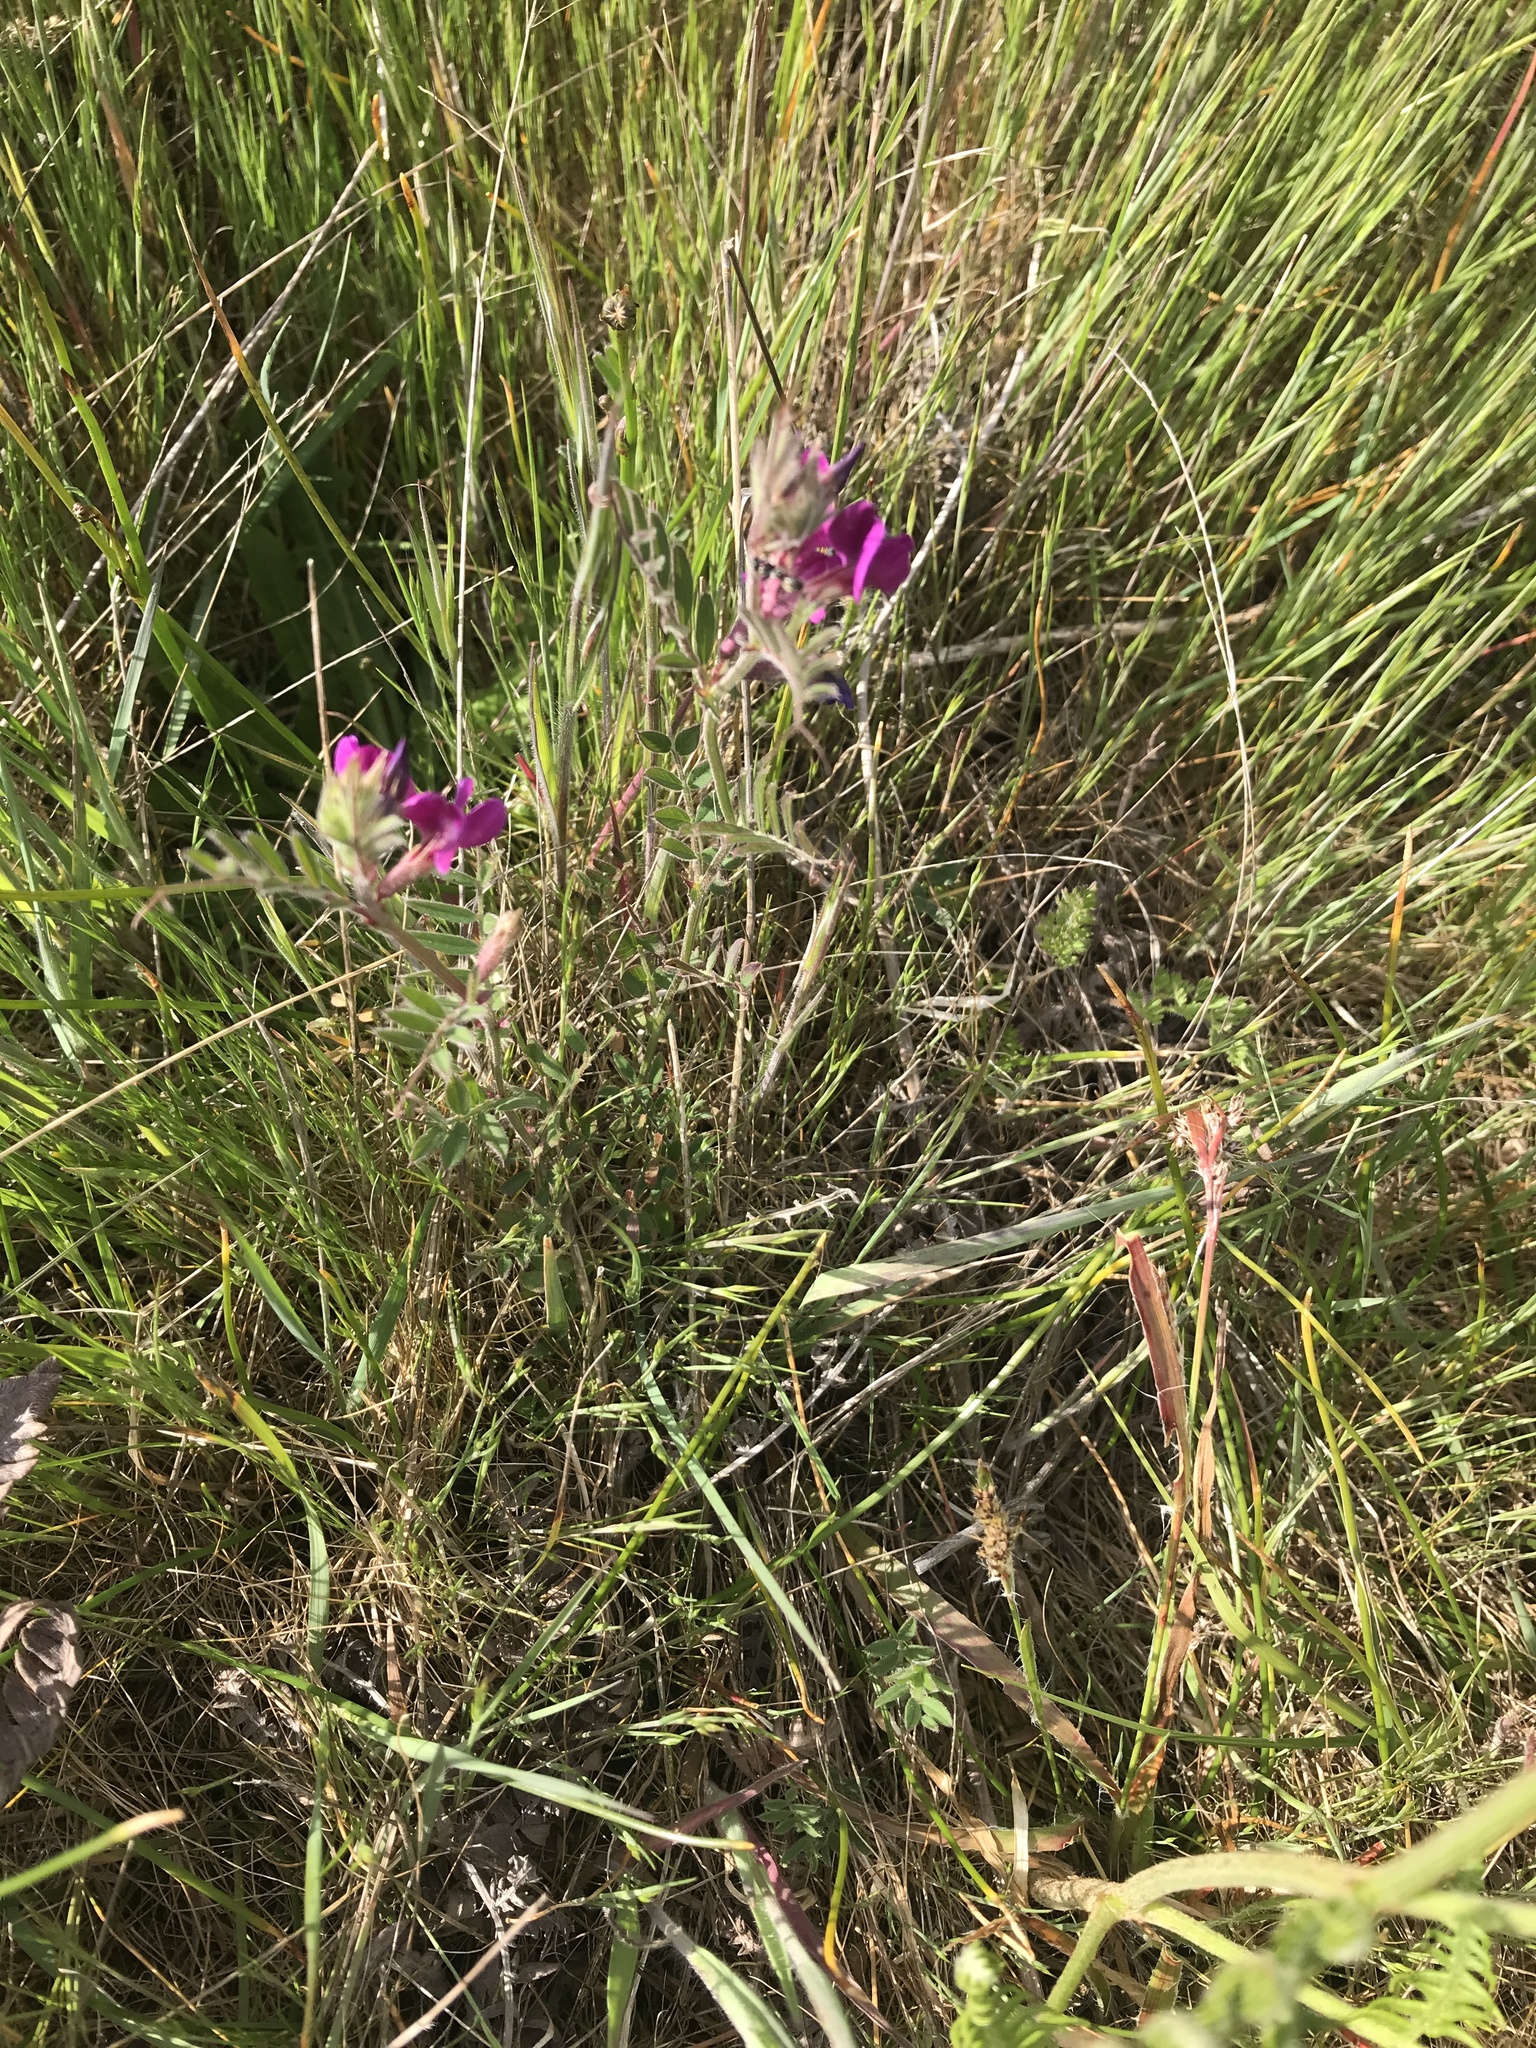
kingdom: Plantae
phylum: Tracheophyta
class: Magnoliopsida
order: Fabales
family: Fabaceae
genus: Vicia
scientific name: Vicia sativa
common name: Garden vetch
